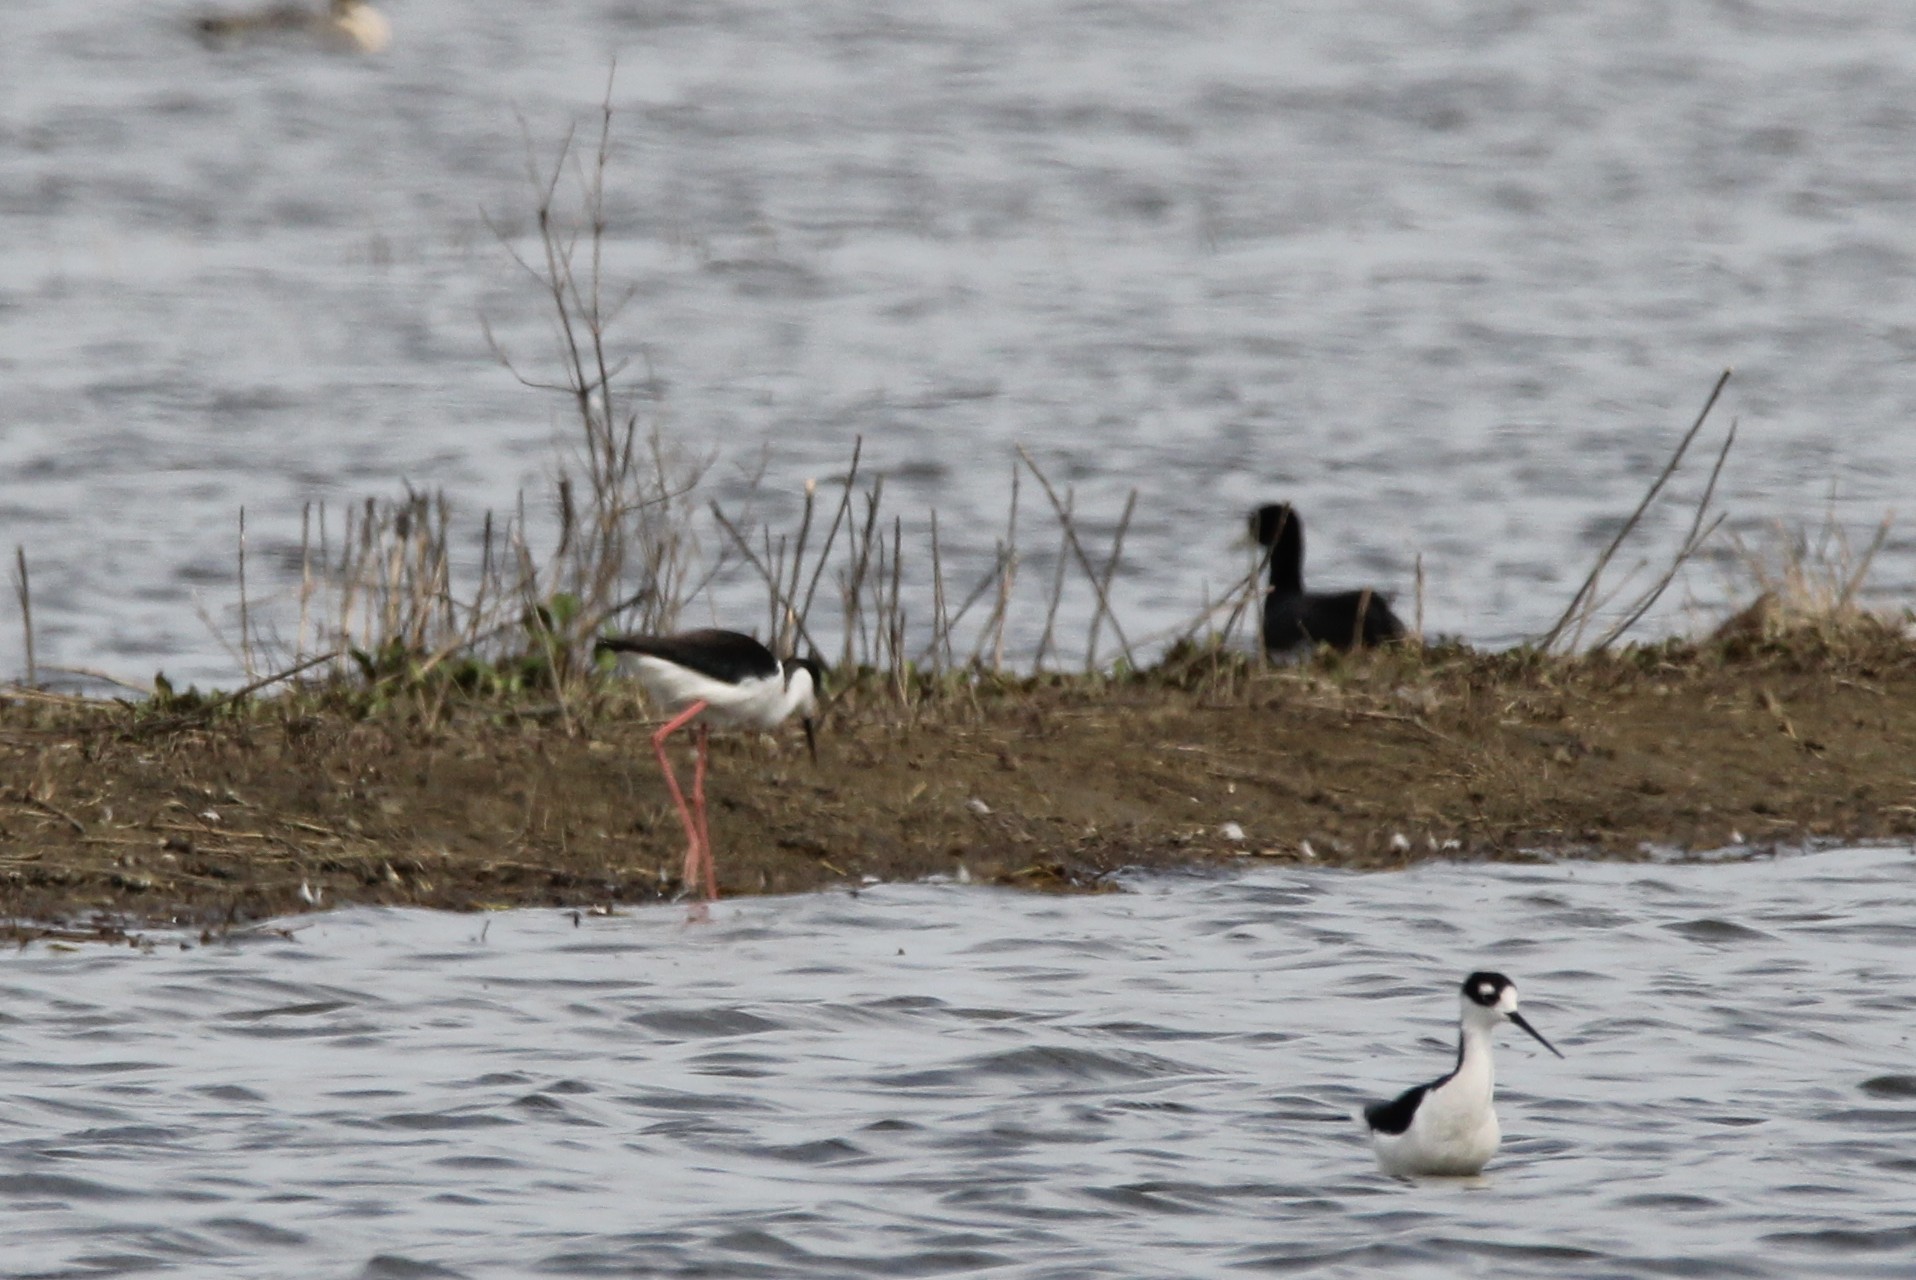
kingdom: Animalia
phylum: Chordata
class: Aves
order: Charadriiformes
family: Recurvirostridae
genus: Himantopus
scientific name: Himantopus mexicanus
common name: Black-necked stilt
